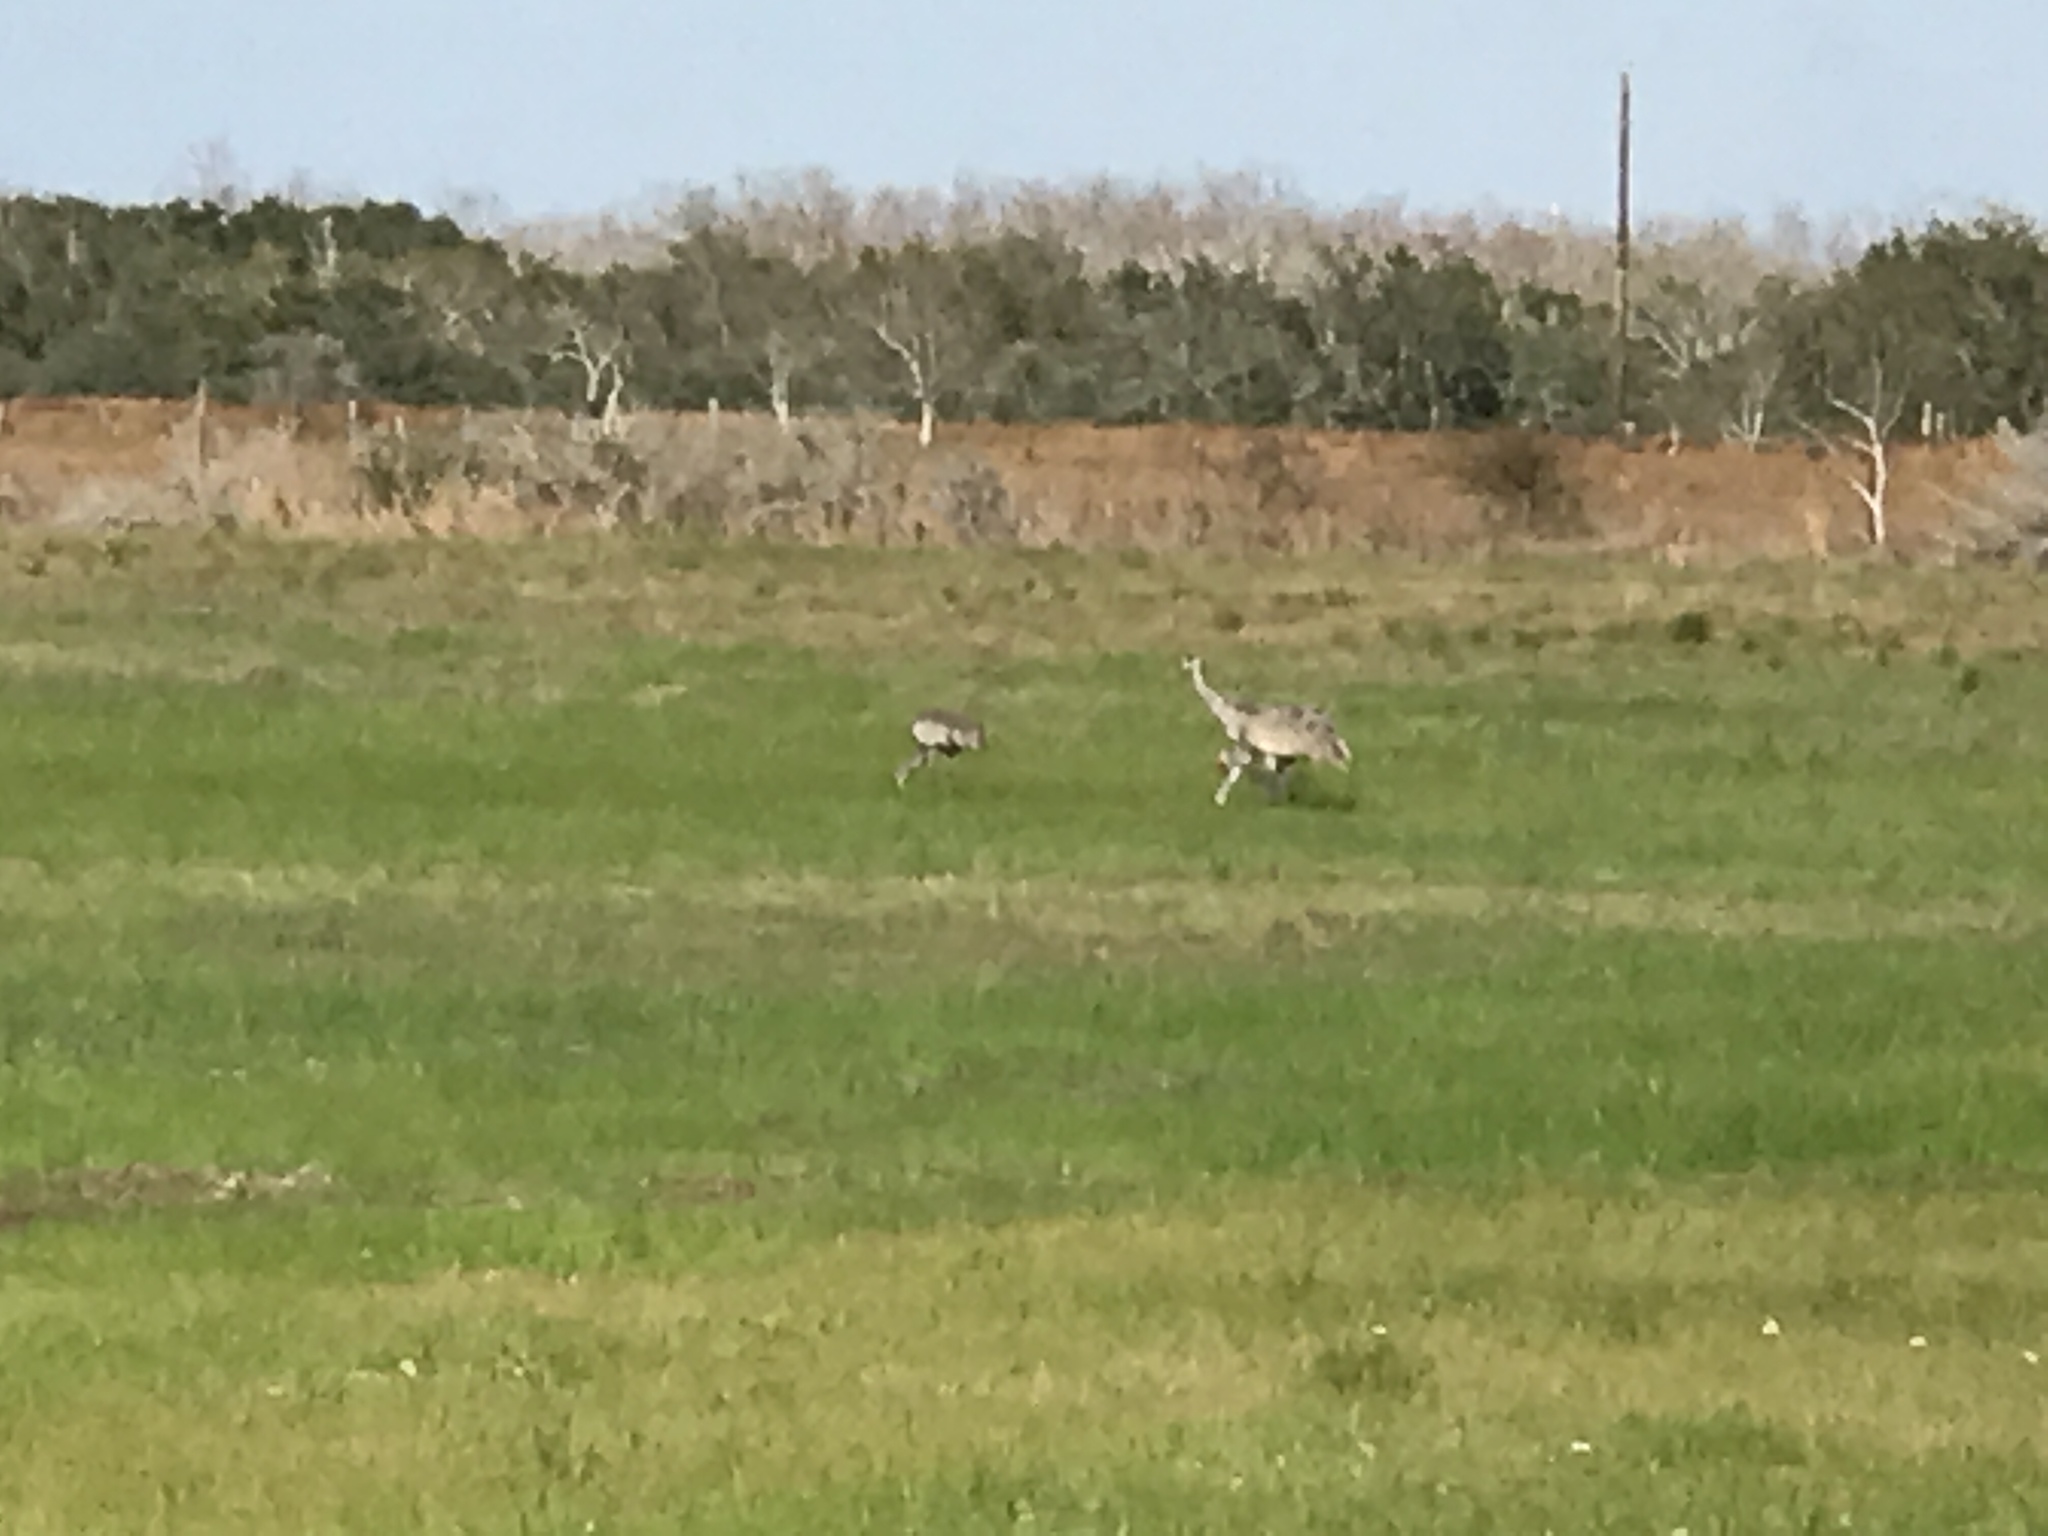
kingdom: Animalia
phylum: Chordata
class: Aves
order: Gruiformes
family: Gruidae
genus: Grus
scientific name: Grus canadensis
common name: Sandhill crane
